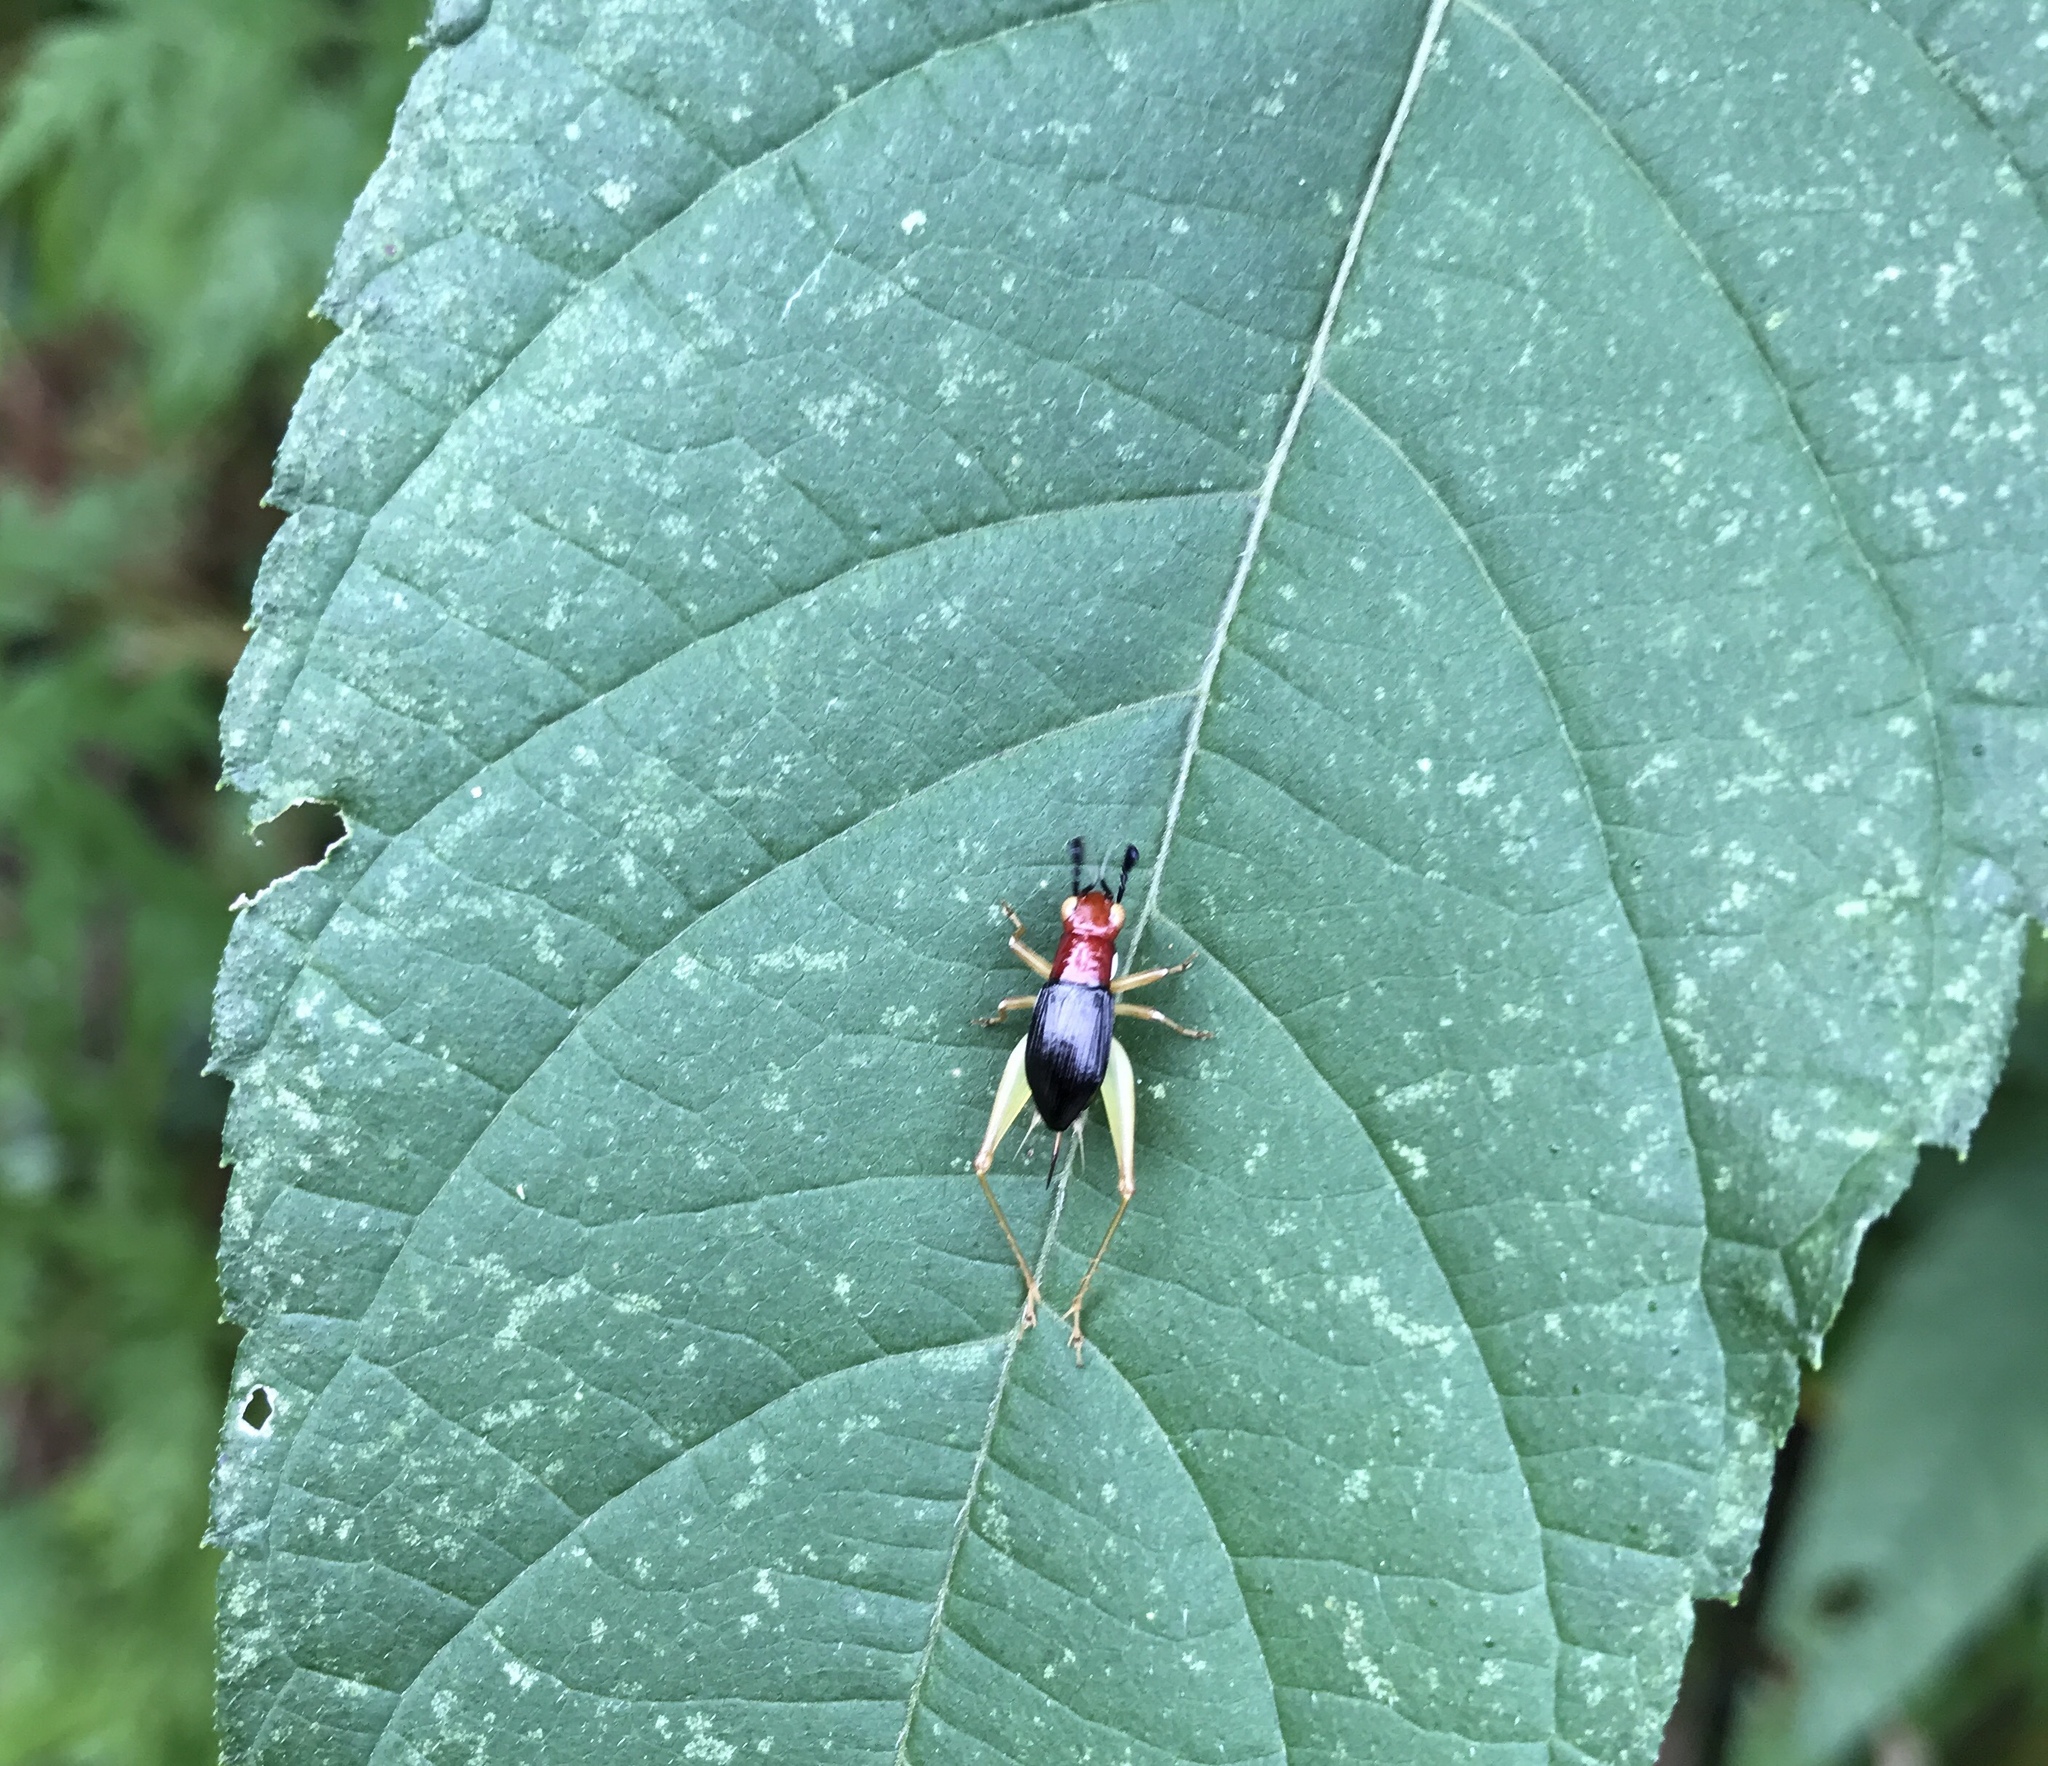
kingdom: Animalia
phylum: Arthropoda
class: Insecta
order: Orthoptera
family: Trigonidiidae
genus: Phyllopalpus
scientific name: Phyllopalpus pulchellus
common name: Handsome trig
